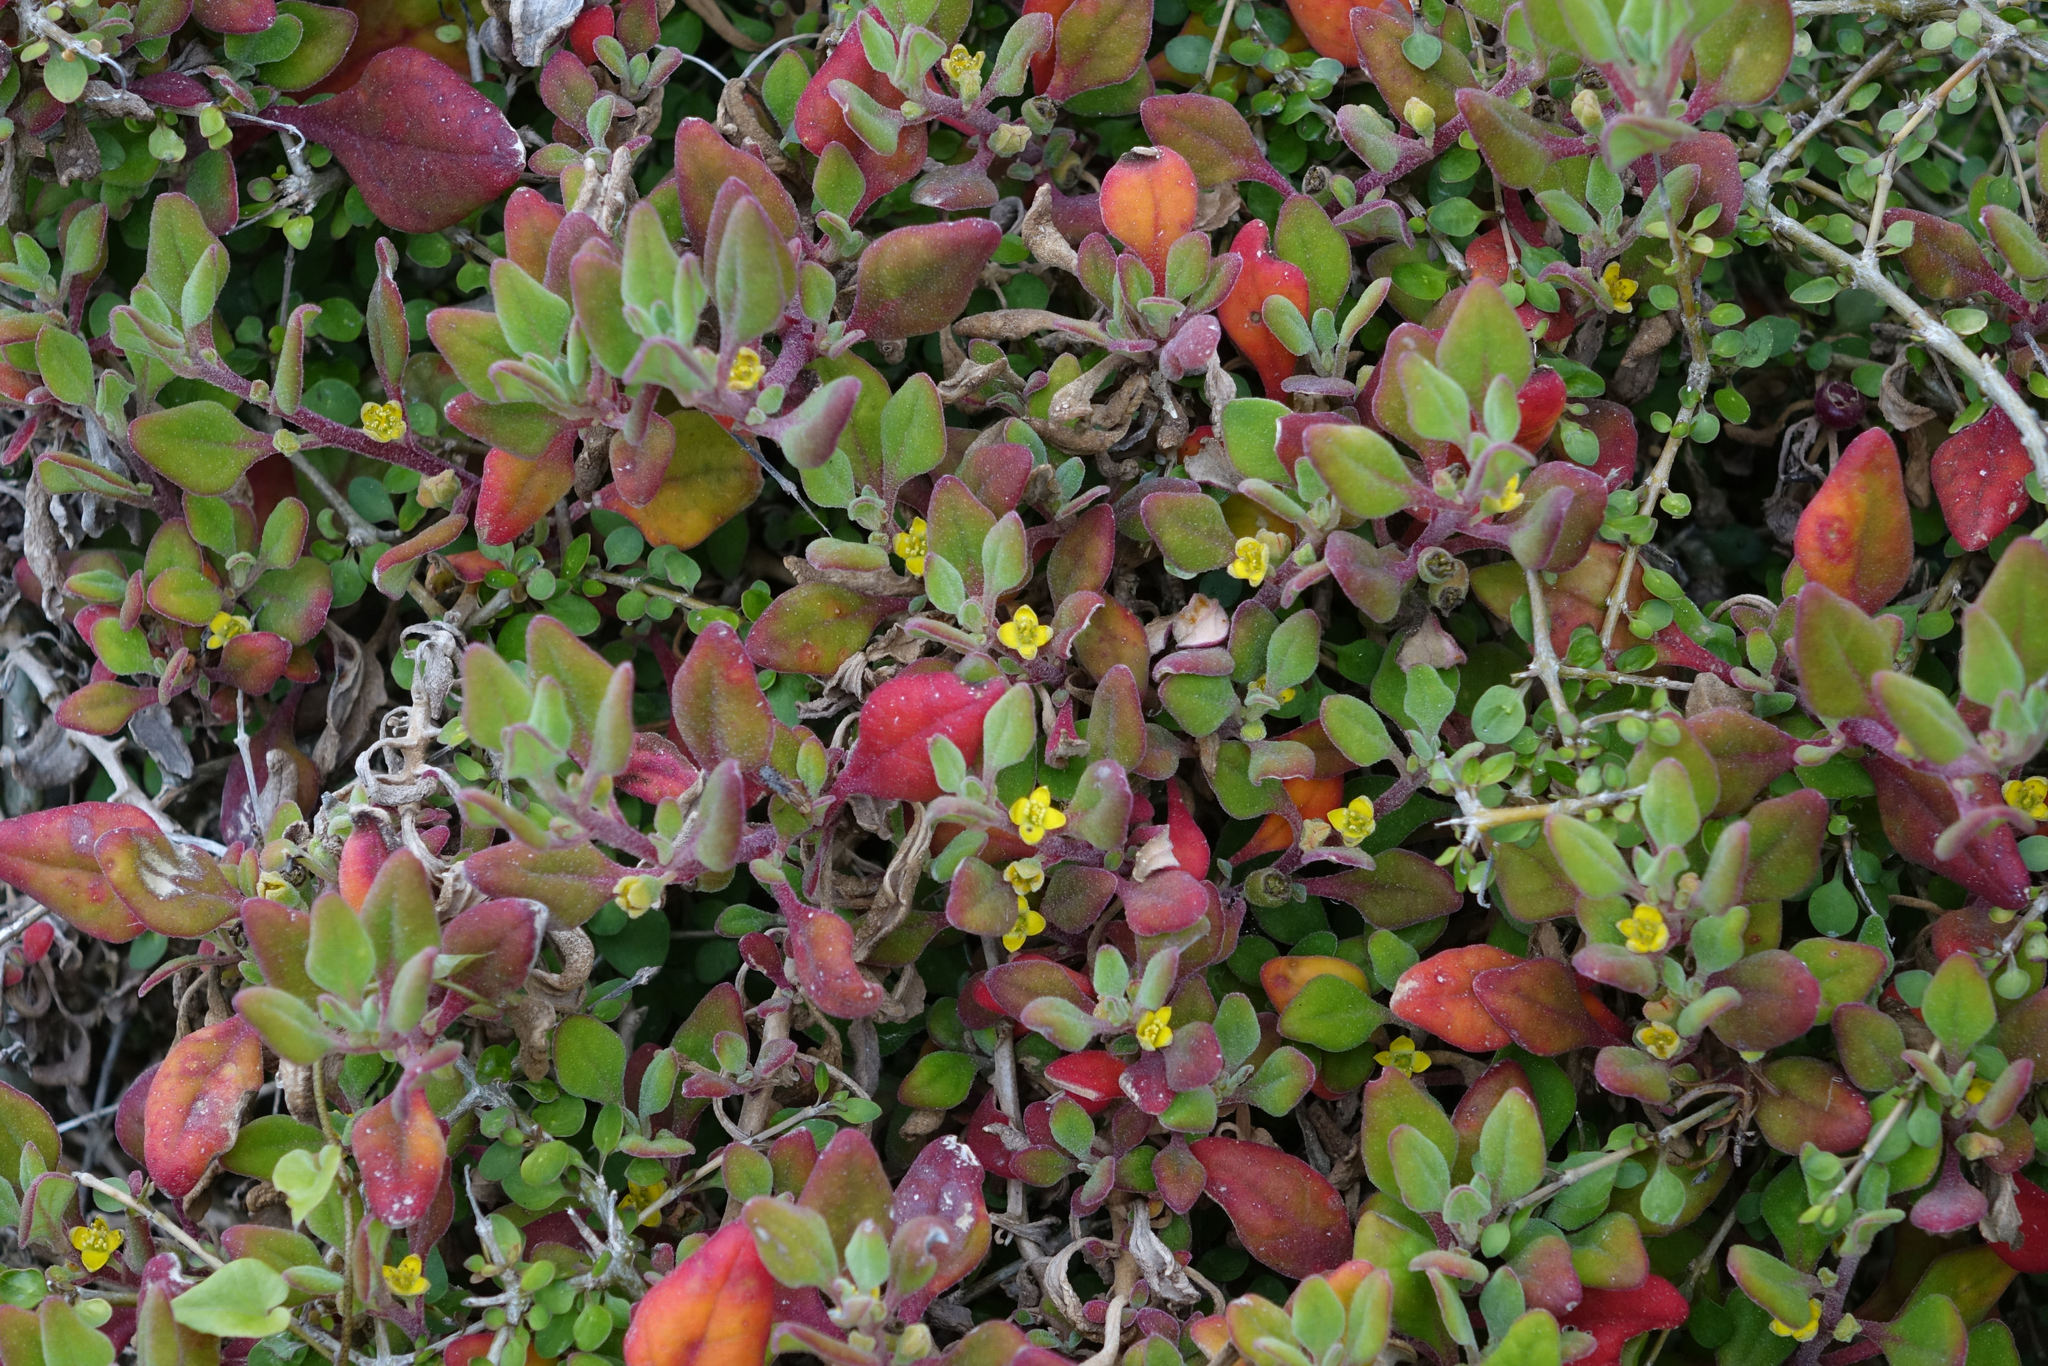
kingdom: Plantae
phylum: Tracheophyta
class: Magnoliopsida
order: Caryophyllales
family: Aizoaceae
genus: Tetragonia
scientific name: Tetragonia implexicoma
